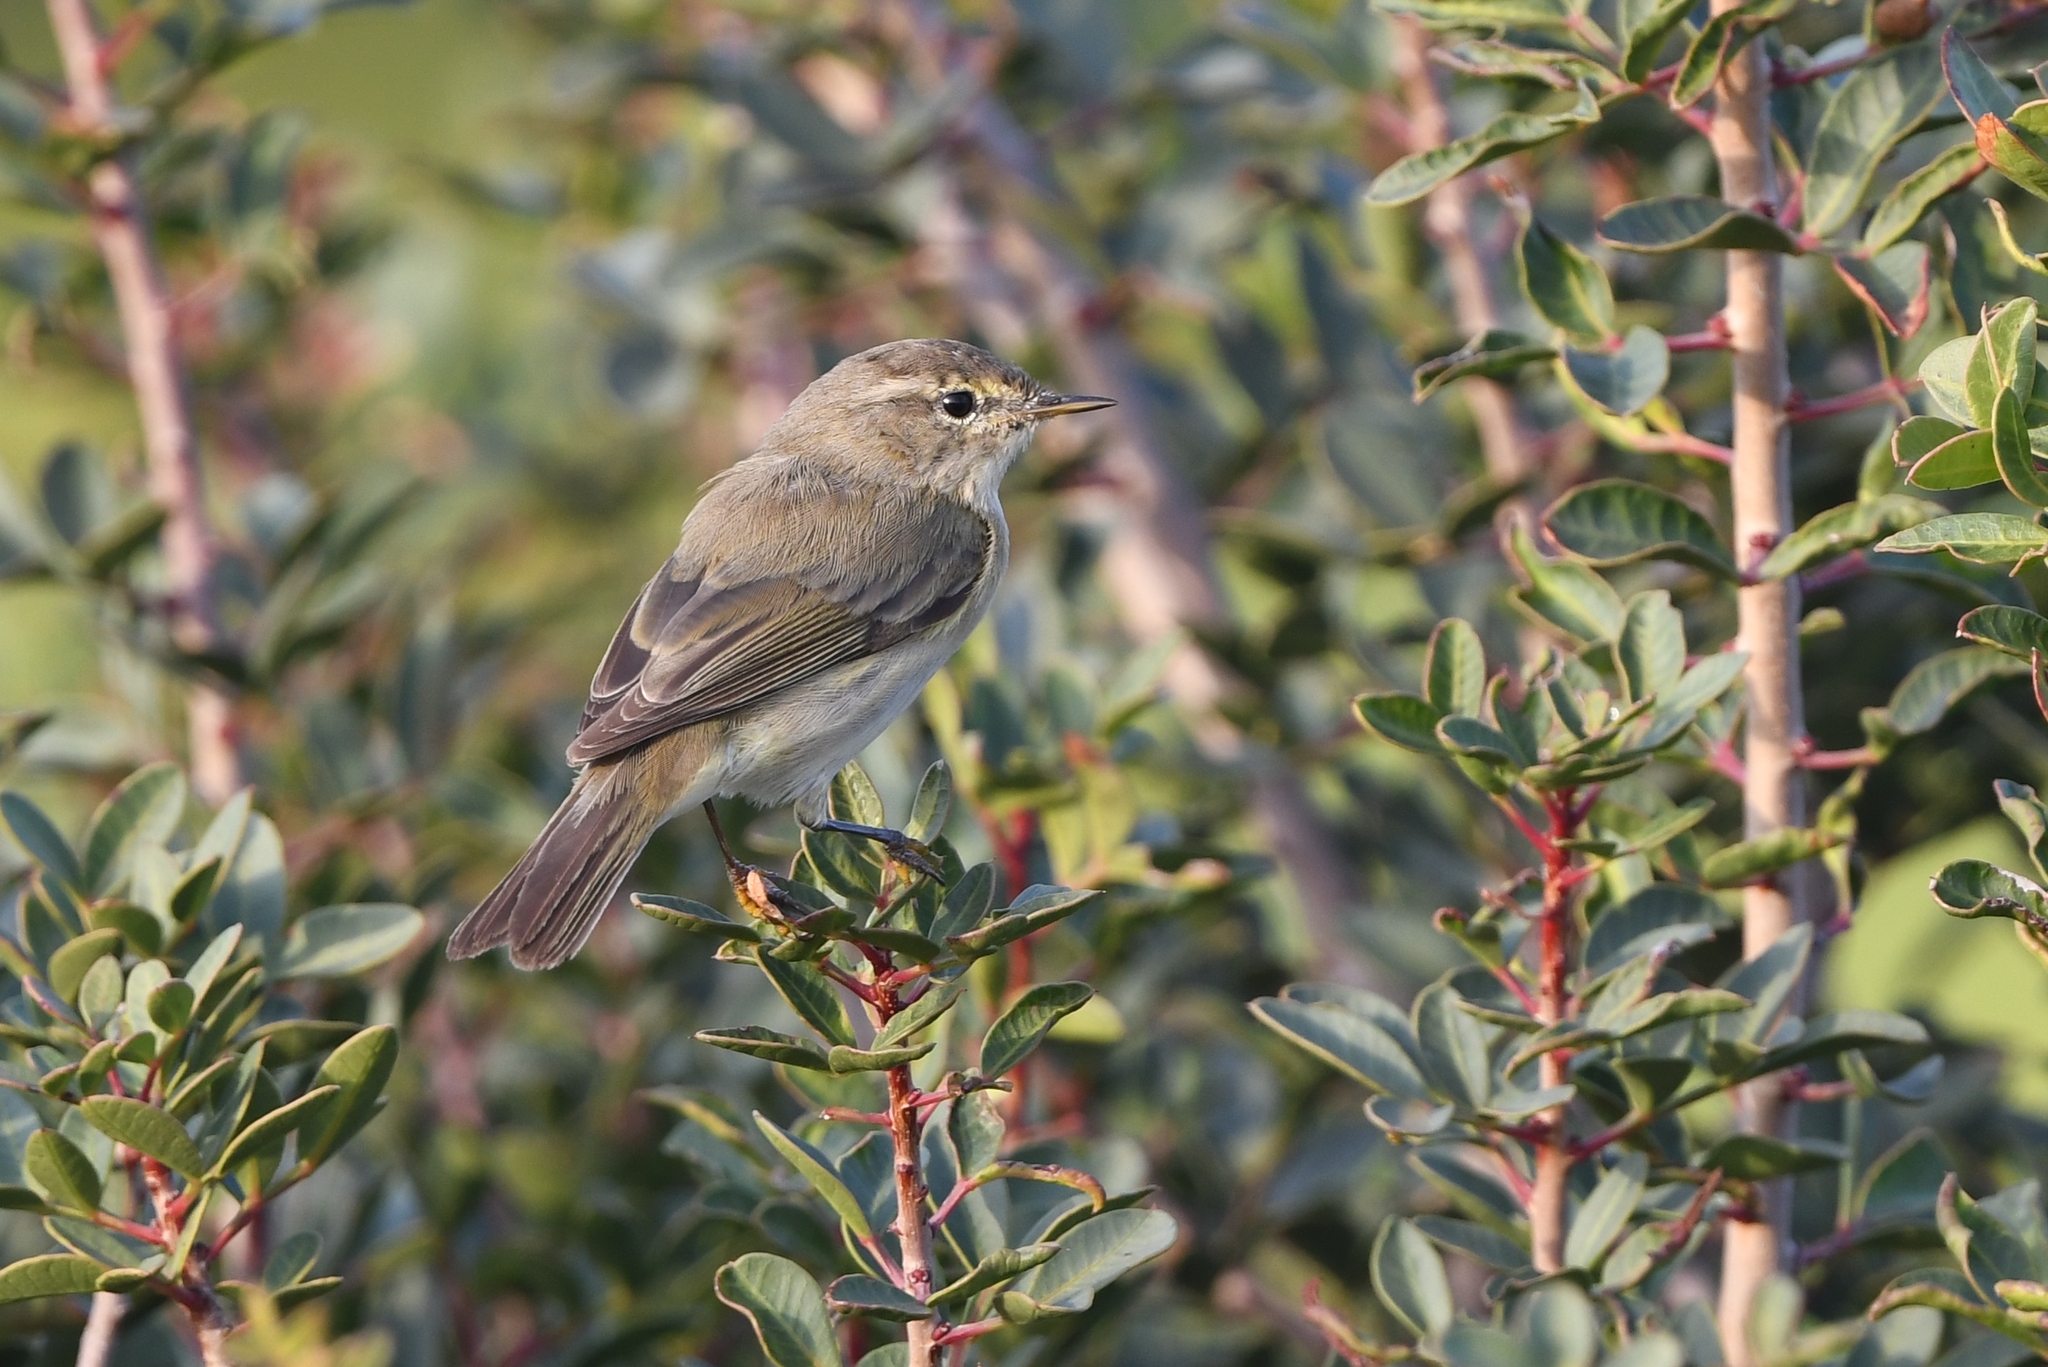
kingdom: Animalia
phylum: Chordata
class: Aves
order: Passeriformes
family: Phylloscopidae
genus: Phylloscopus
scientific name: Phylloscopus collybita
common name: Common chiffchaff
